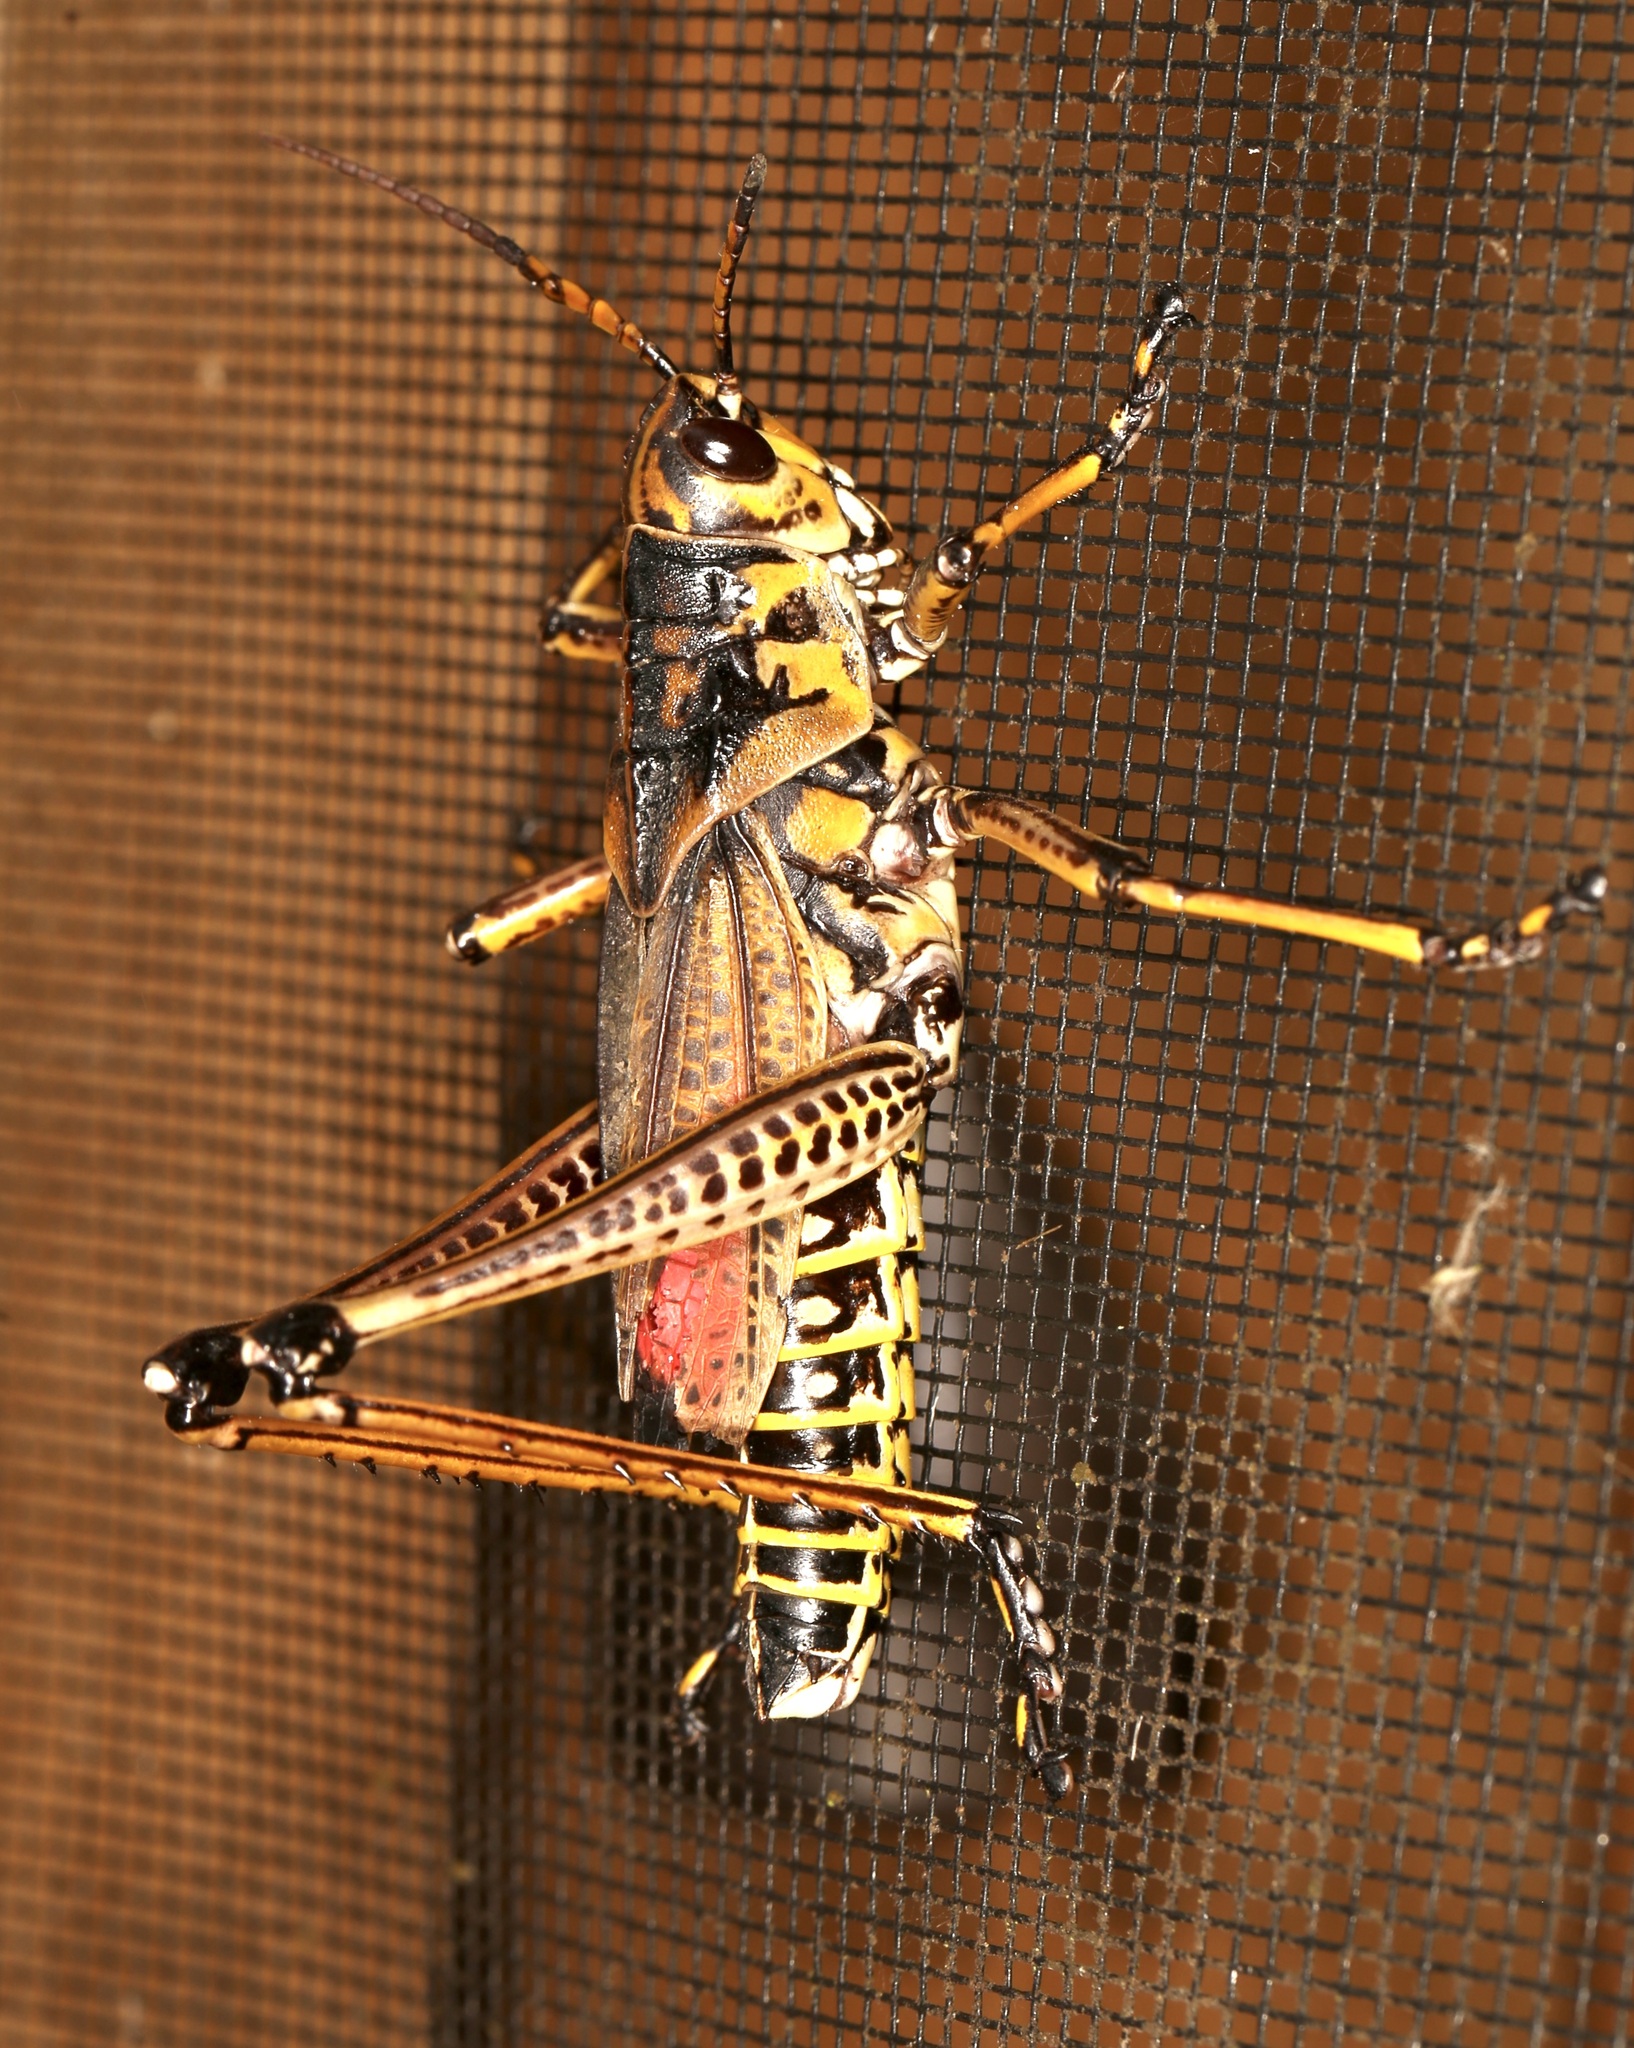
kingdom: Animalia
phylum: Arthropoda
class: Insecta
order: Orthoptera
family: Romaleidae
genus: Romalea
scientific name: Romalea microptera
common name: Eastern lubber grasshopper
